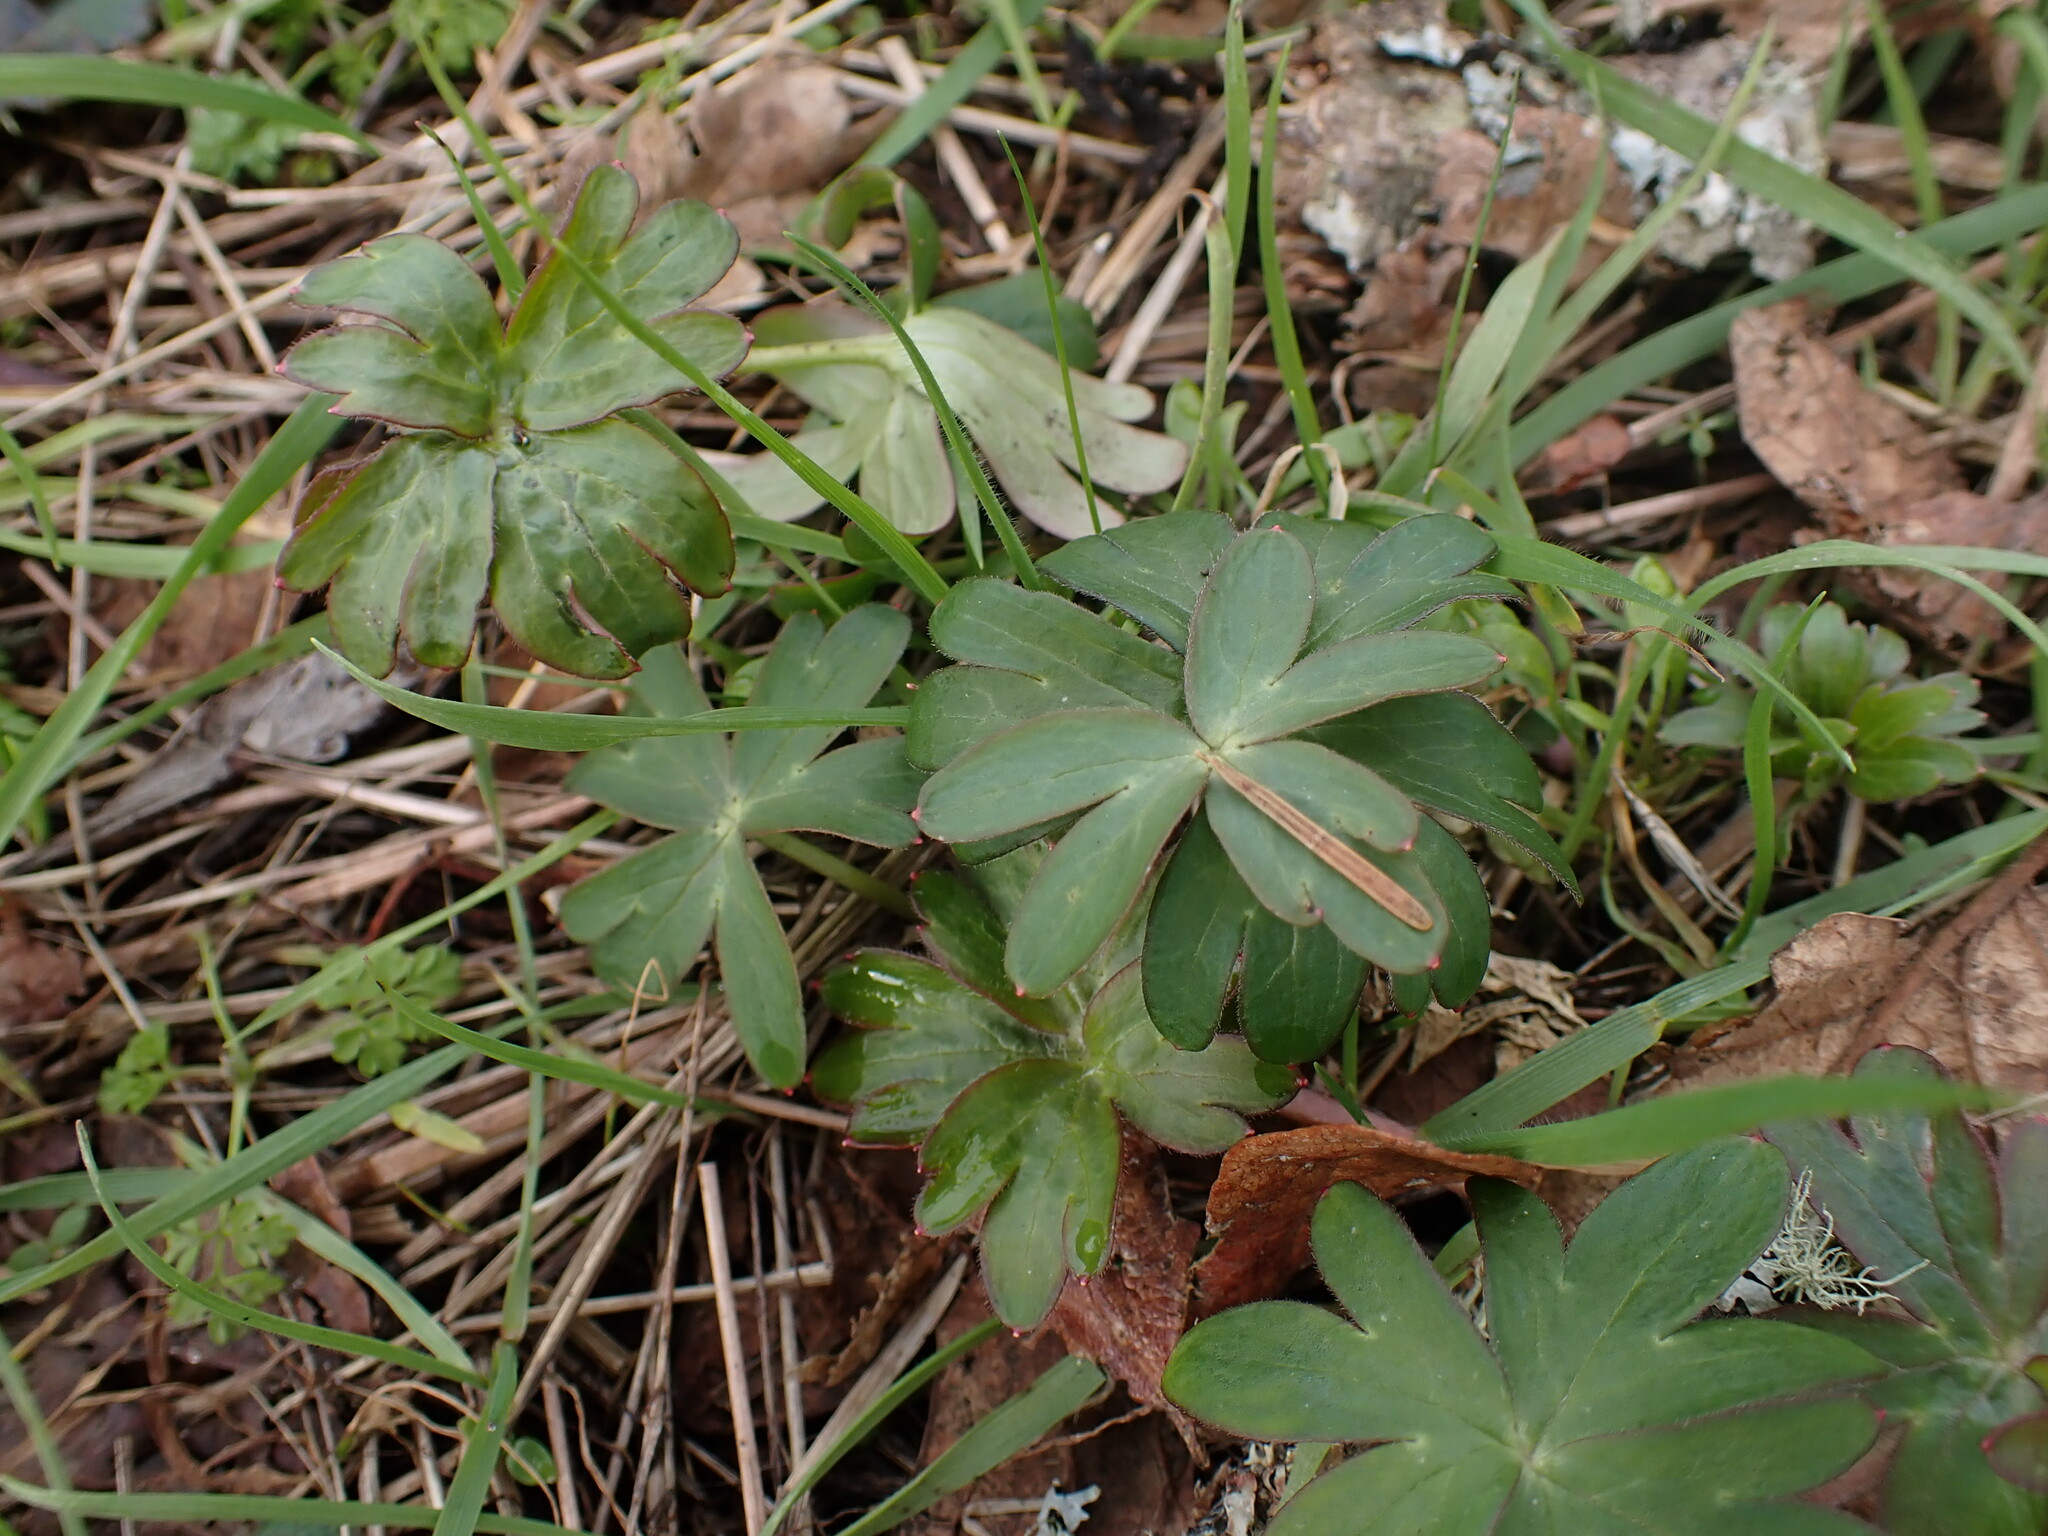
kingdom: Plantae
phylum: Tracheophyta
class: Magnoliopsida
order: Ranunculales
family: Ranunculaceae
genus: Delphinium
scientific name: Delphinium menziesii
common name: Menzies's larkspur
